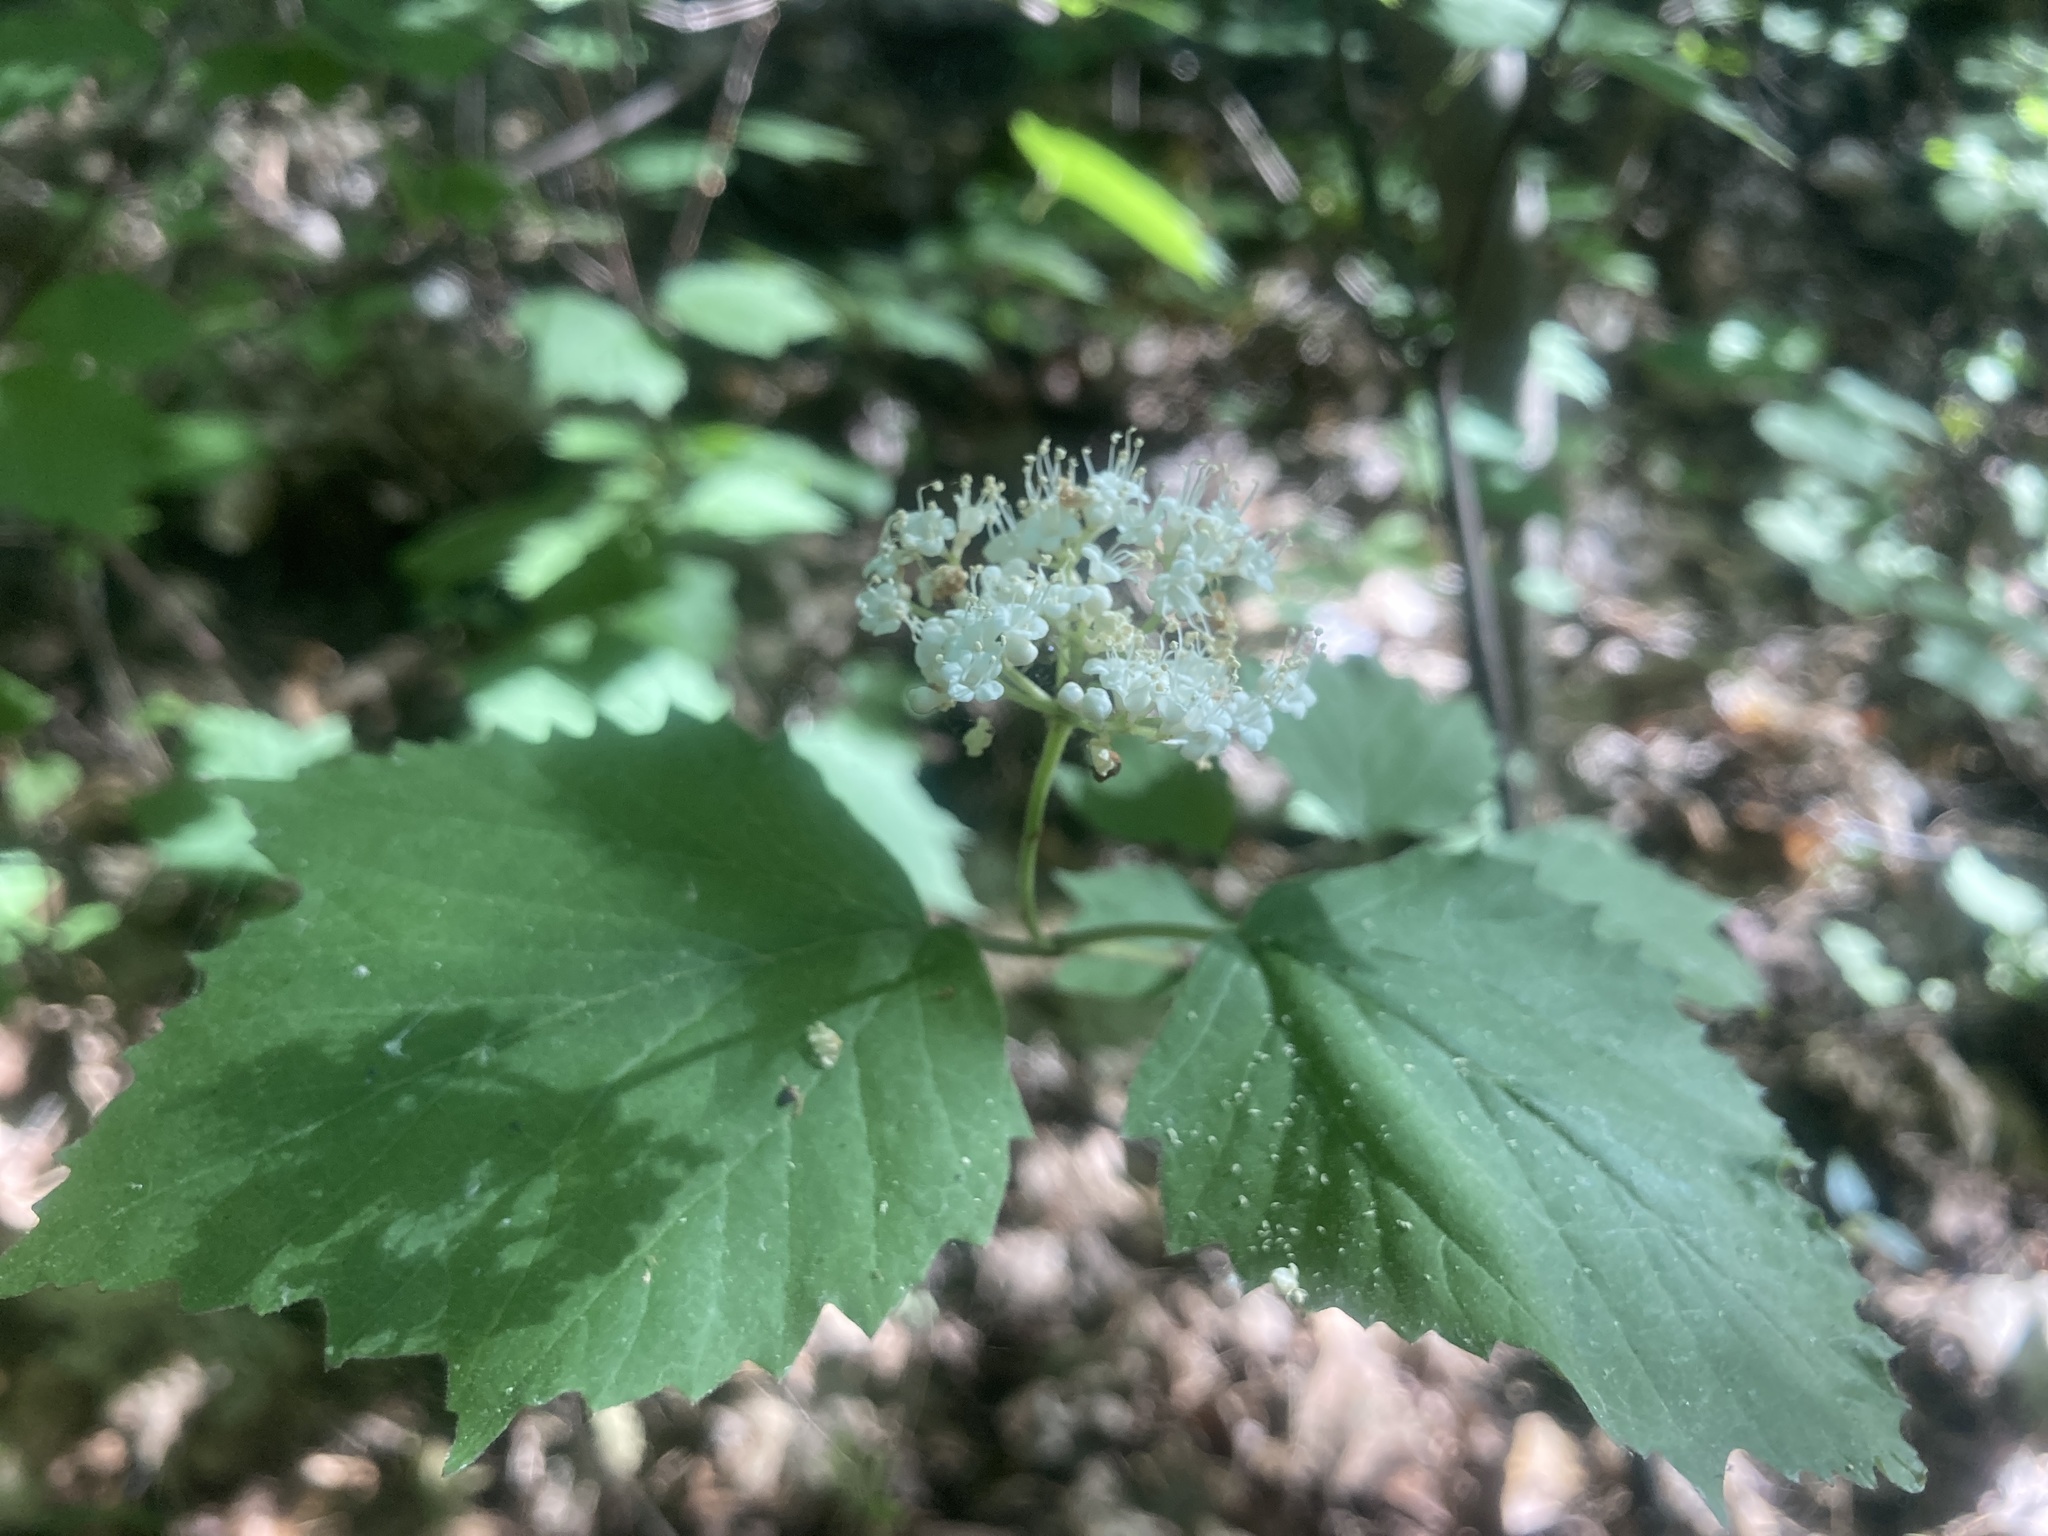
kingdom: Plantae
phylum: Tracheophyta
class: Magnoliopsida
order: Dipsacales
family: Viburnaceae
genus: Viburnum
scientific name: Viburnum acerifolium
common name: Dockmackie
